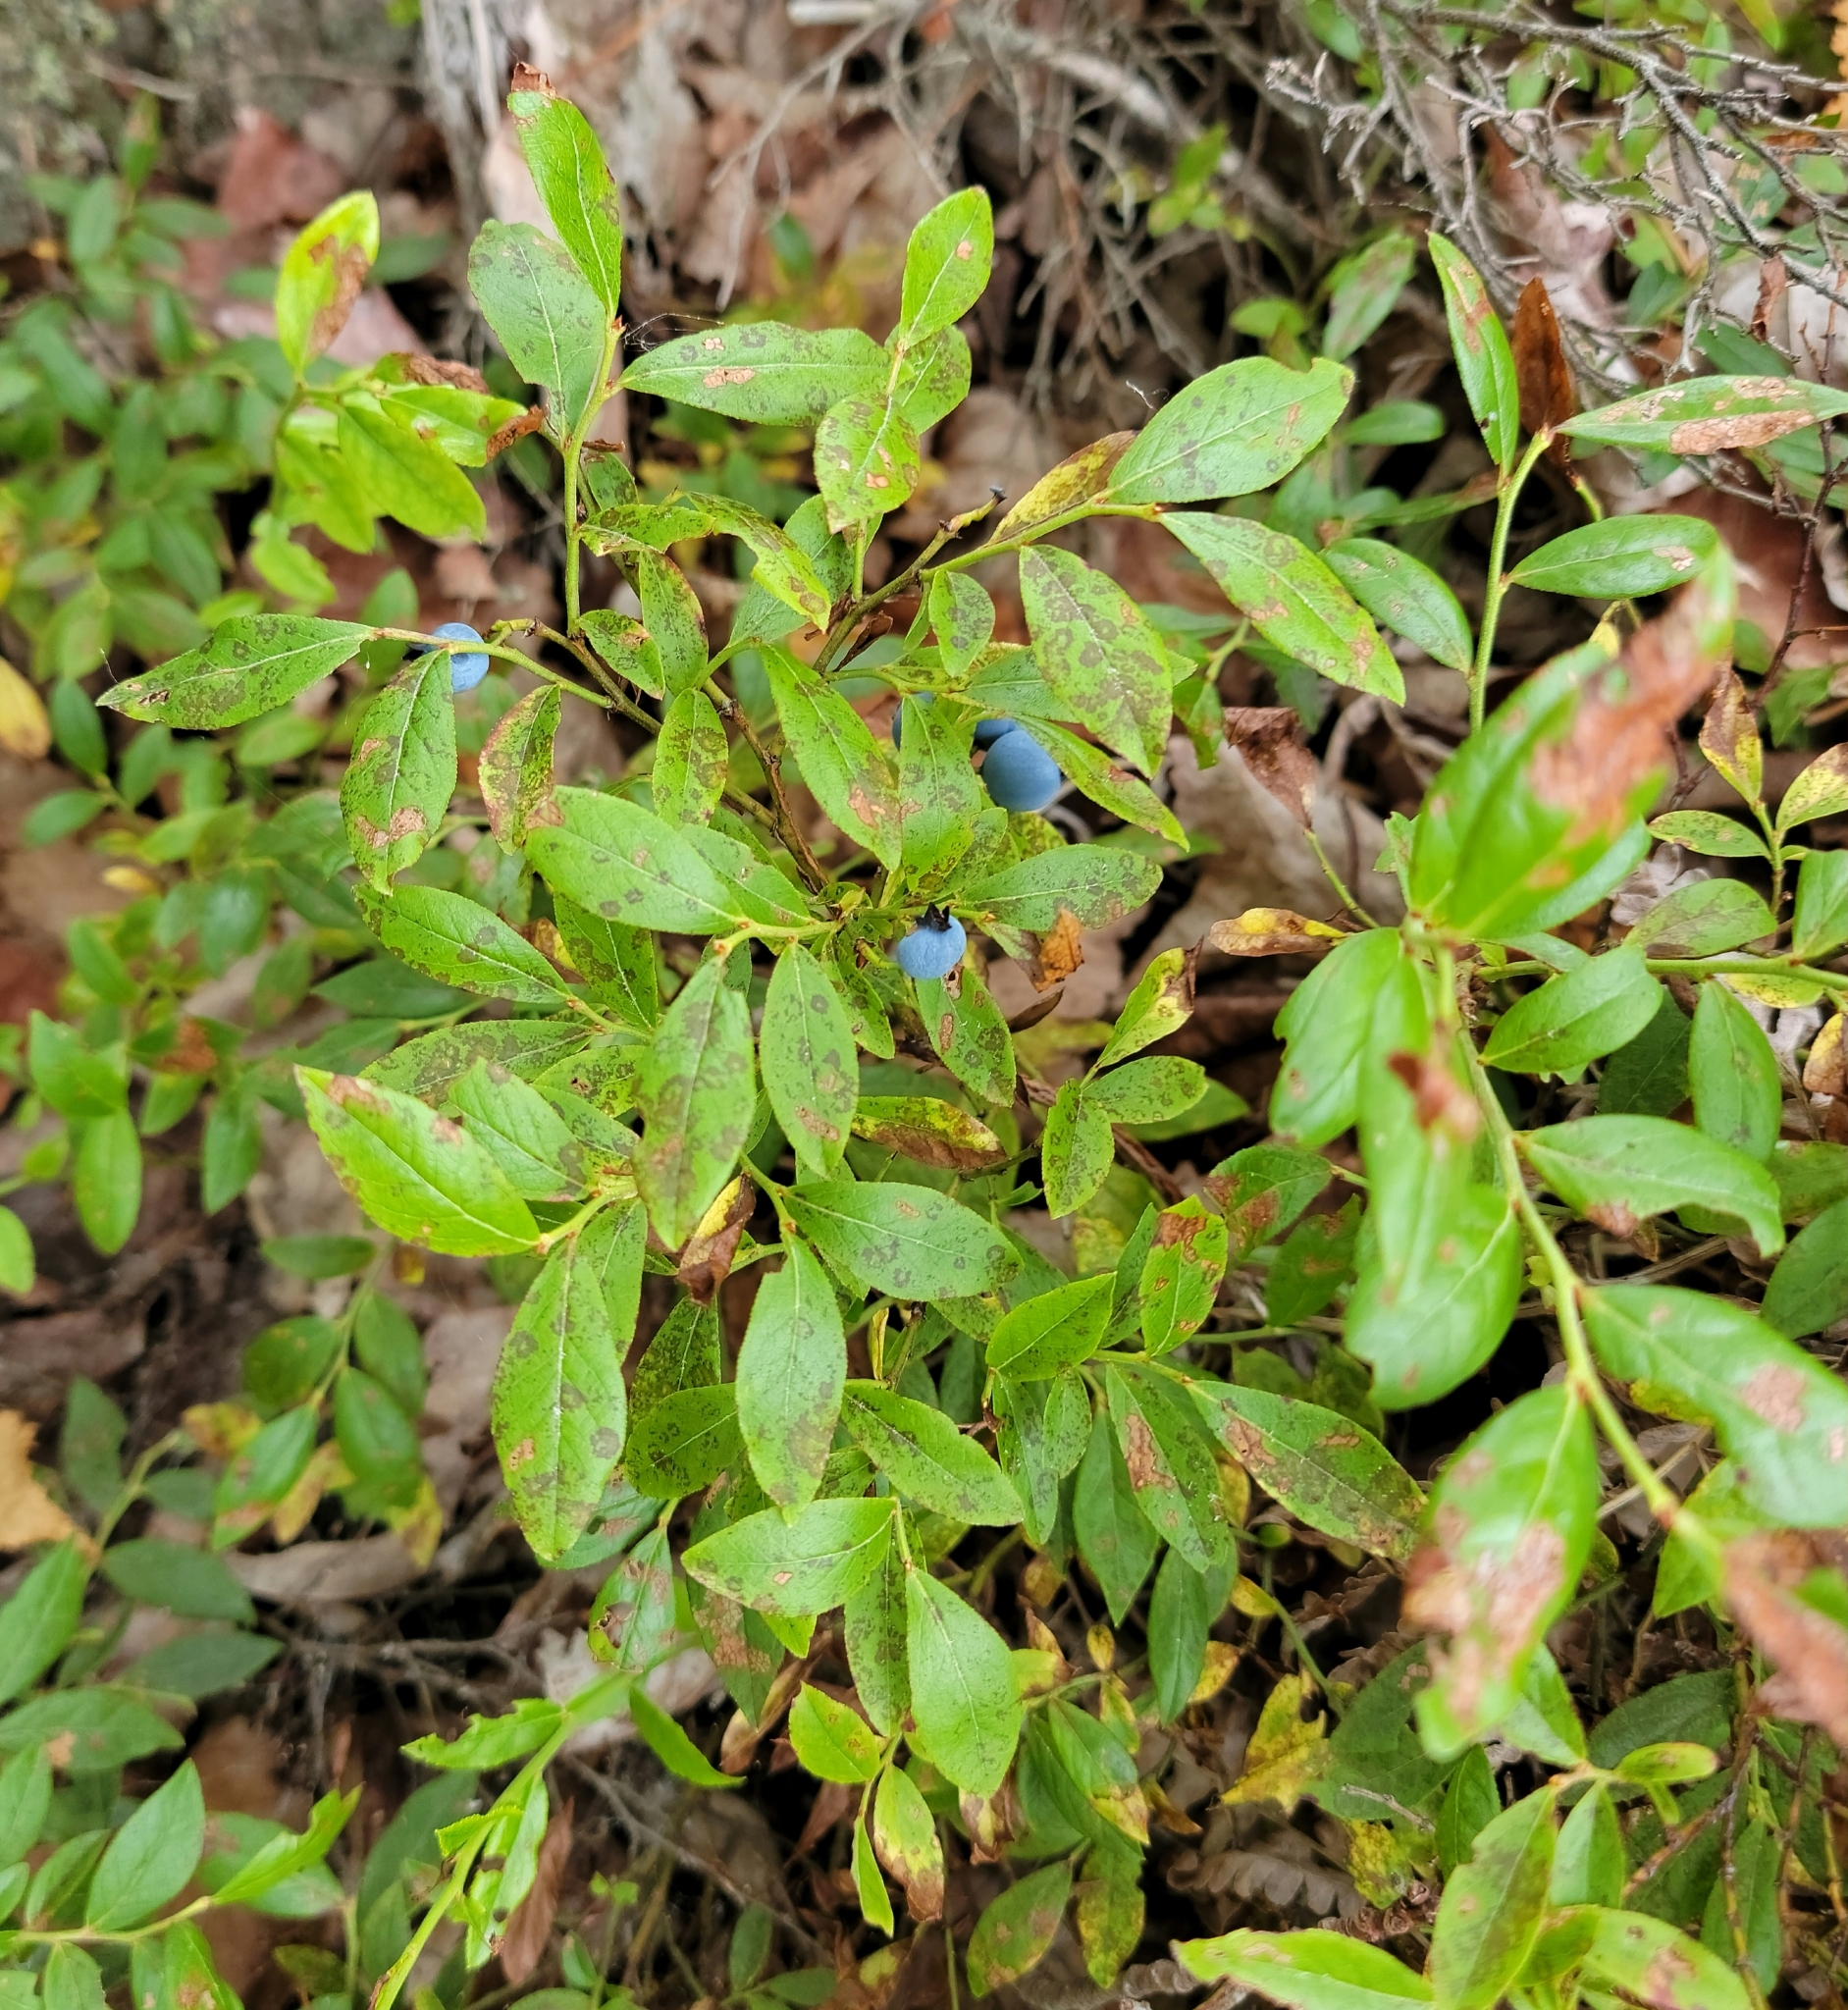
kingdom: Plantae
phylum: Tracheophyta
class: Magnoliopsida
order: Ericales
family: Ericaceae
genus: Vaccinium
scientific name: Vaccinium angustifolium
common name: Early lowbush blueberry
